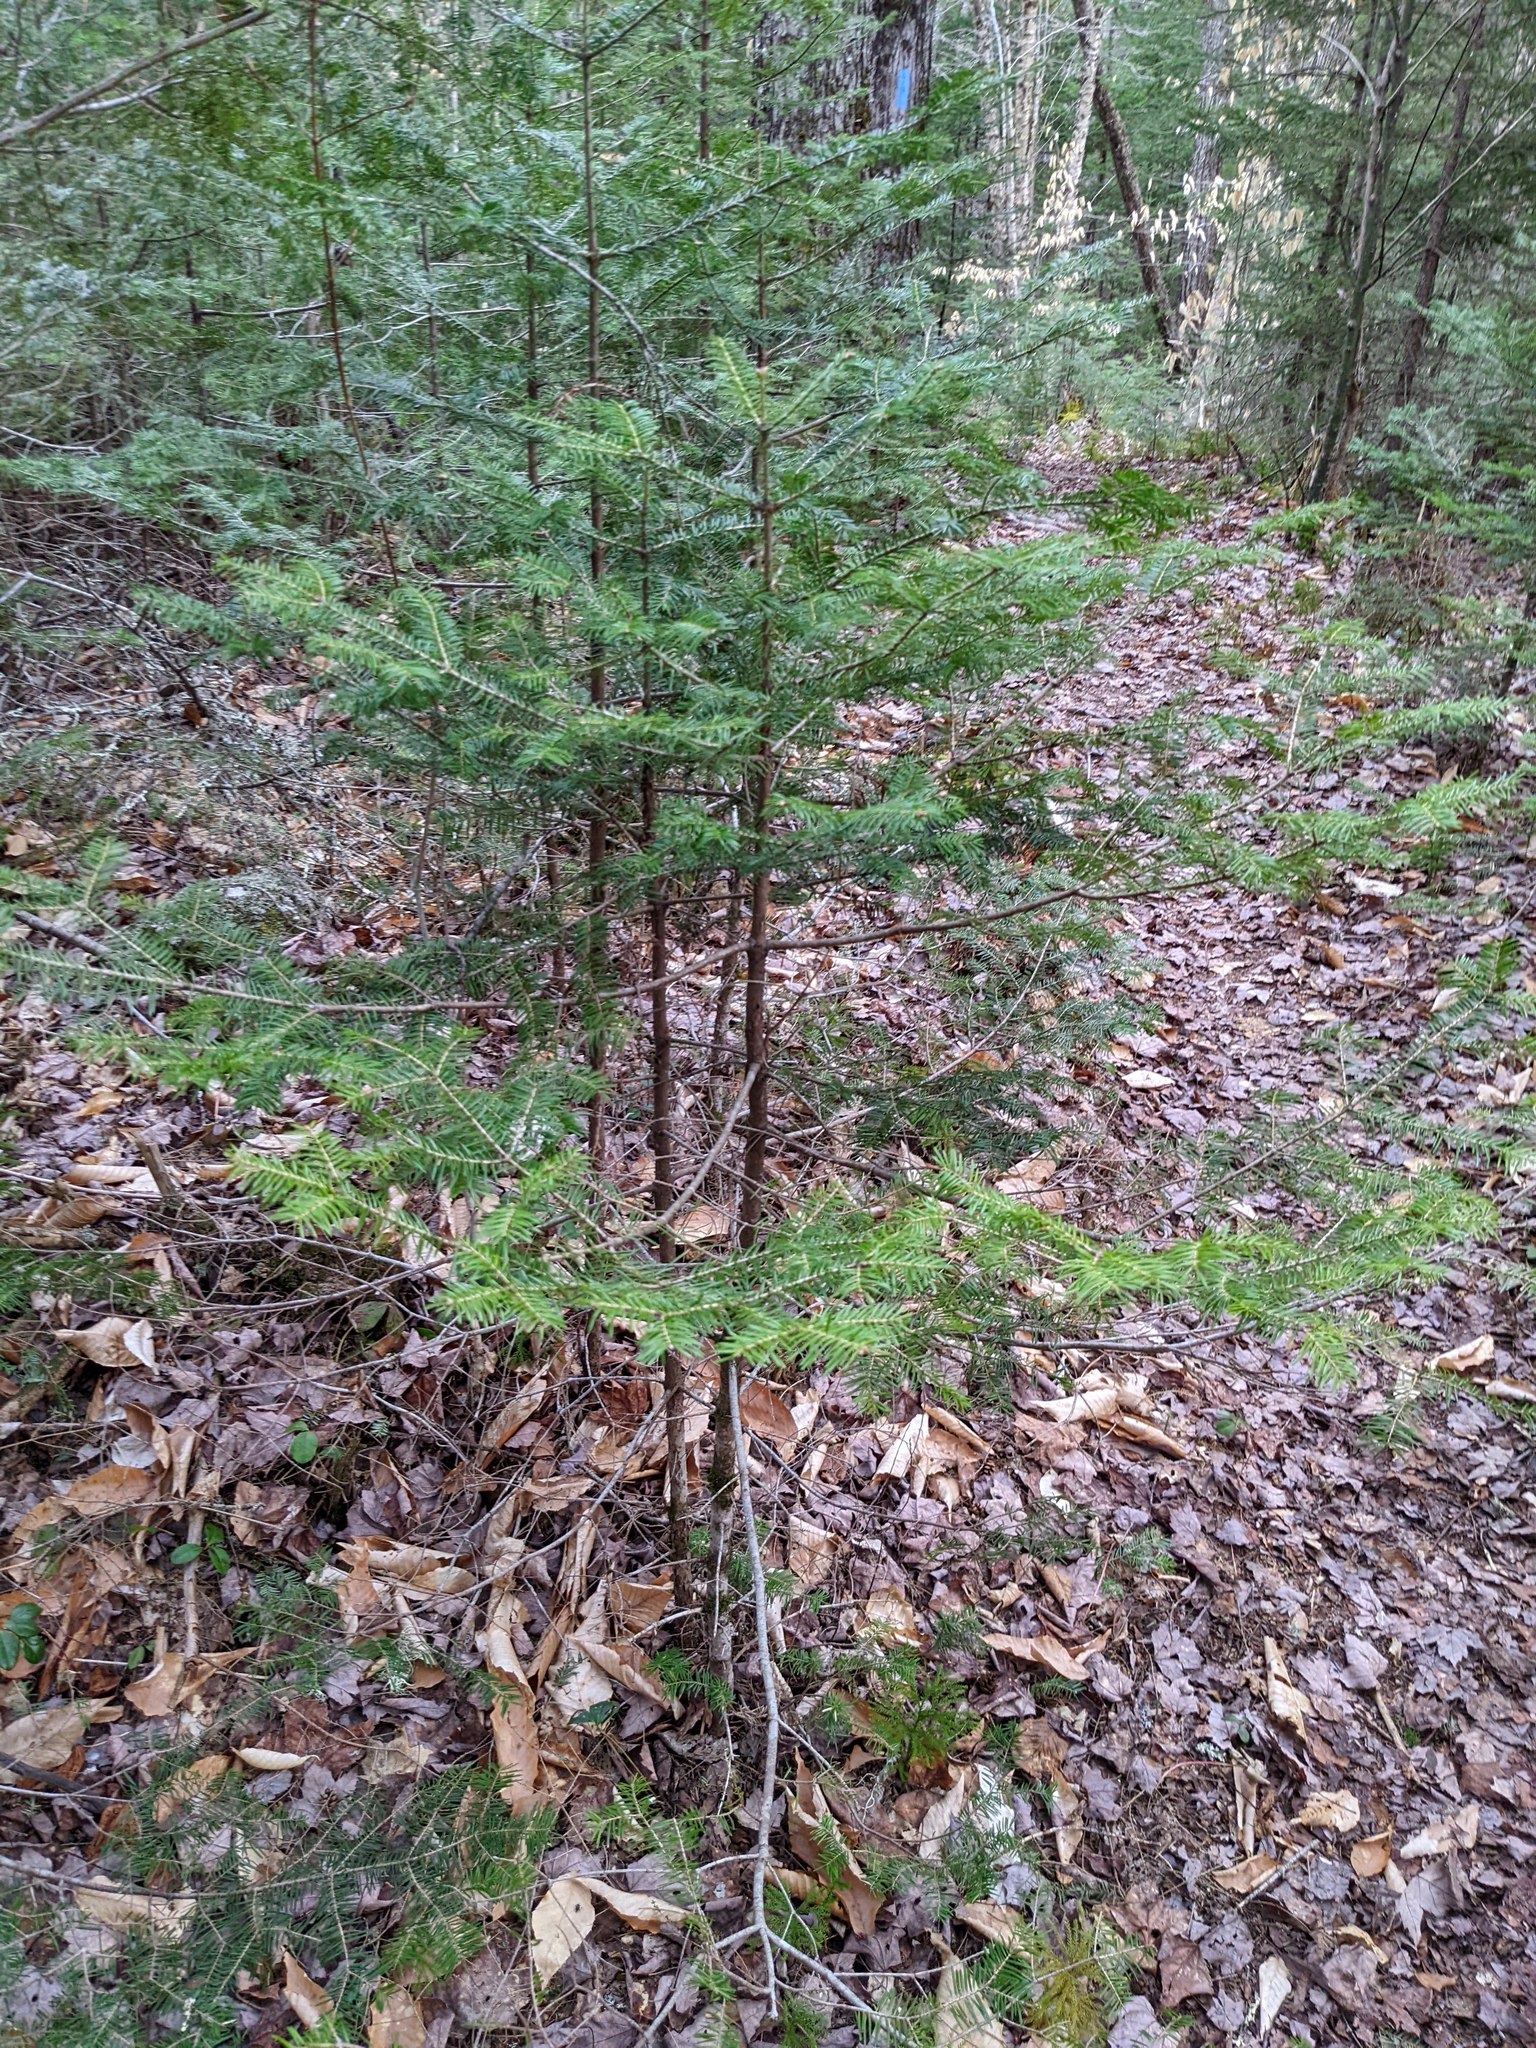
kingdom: Plantae
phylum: Tracheophyta
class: Pinopsida
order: Pinales
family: Pinaceae
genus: Abies
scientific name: Abies balsamea
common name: Balsam fir
